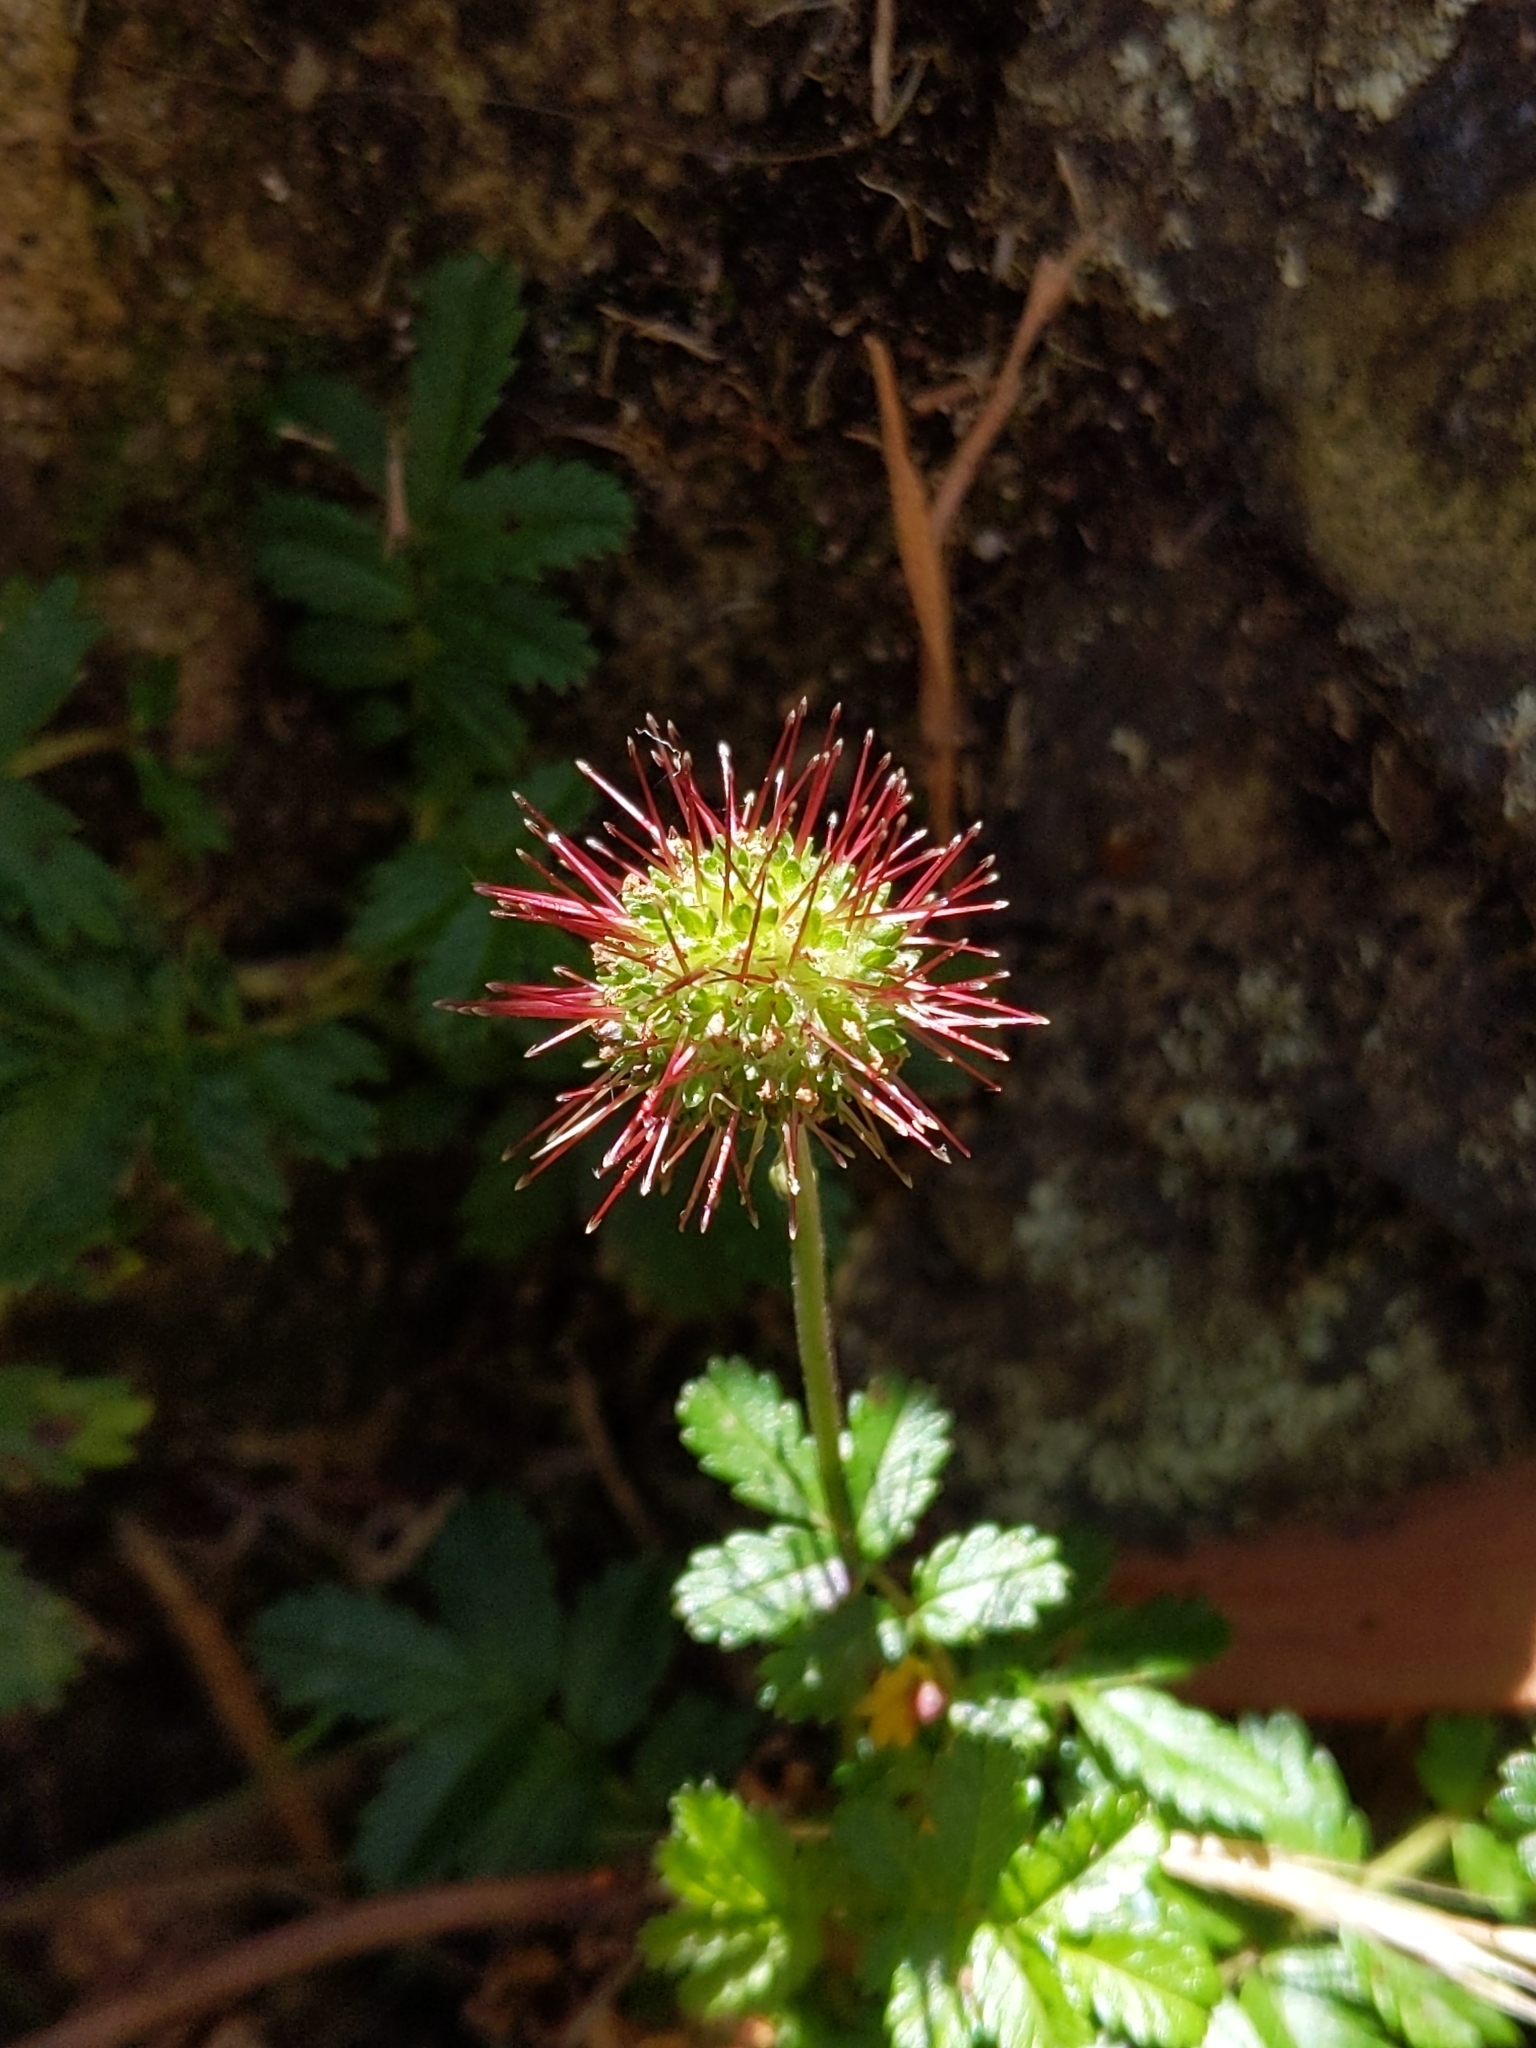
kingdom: Plantae
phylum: Tracheophyta
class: Magnoliopsida
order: Rosales
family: Rosaceae
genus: Acaena
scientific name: Acaena novae-zelandiae
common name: Pirri-pirri-bur
